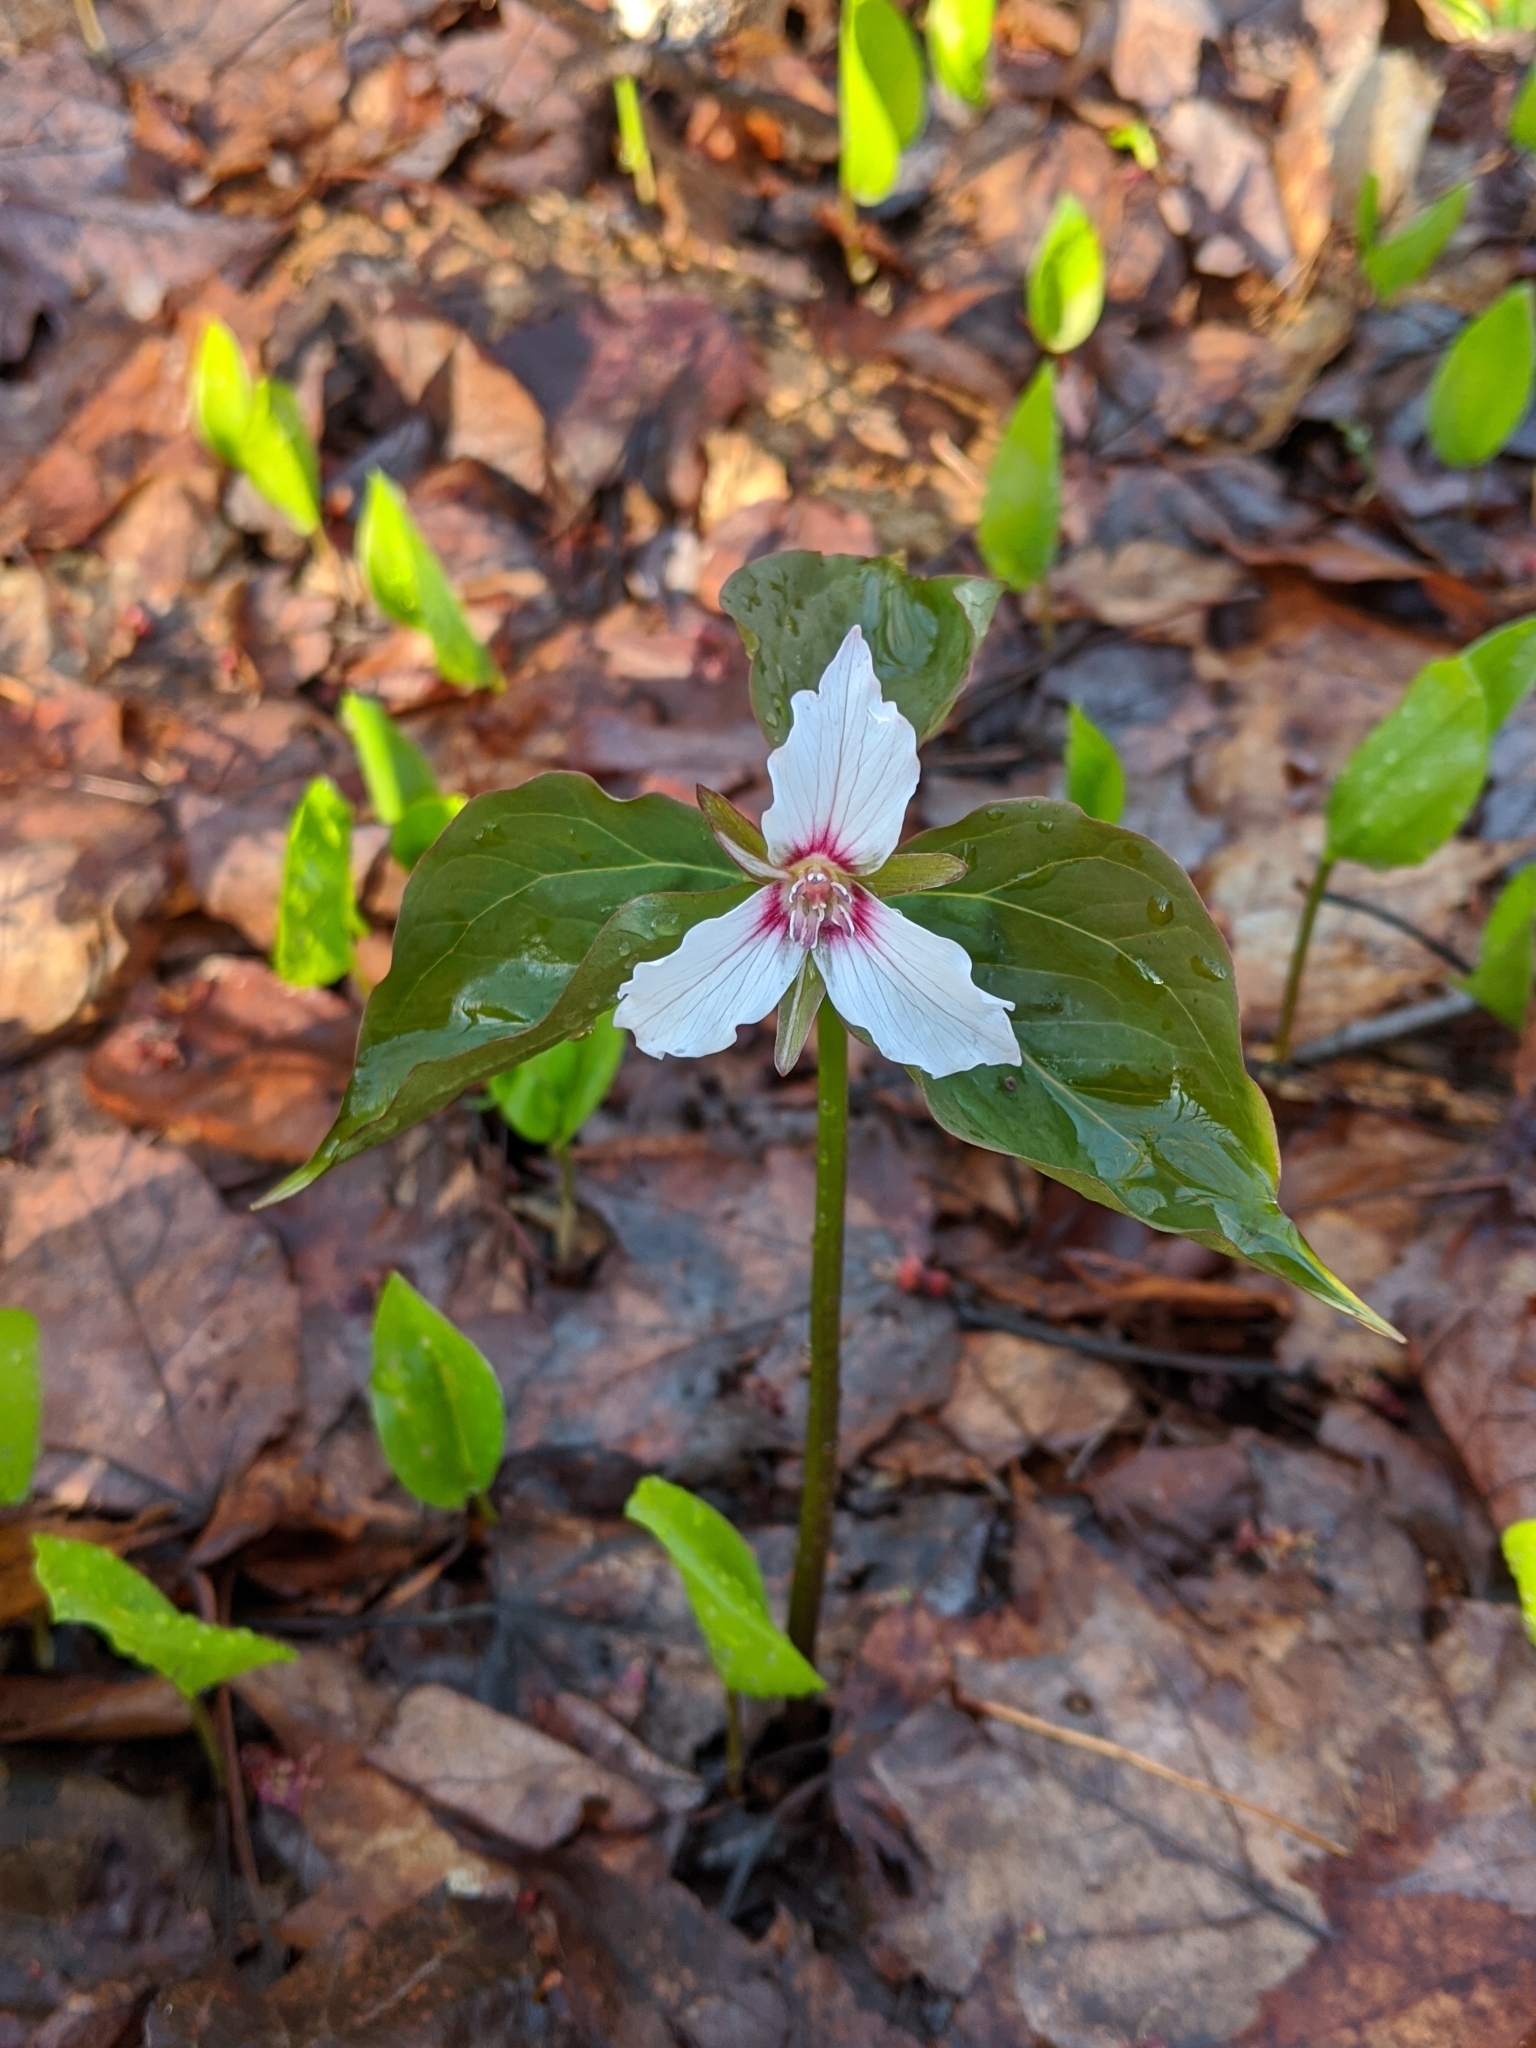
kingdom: Plantae
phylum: Tracheophyta
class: Liliopsida
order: Liliales
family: Melanthiaceae
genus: Trillium
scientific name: Trillium undulatum
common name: Paint trillium
